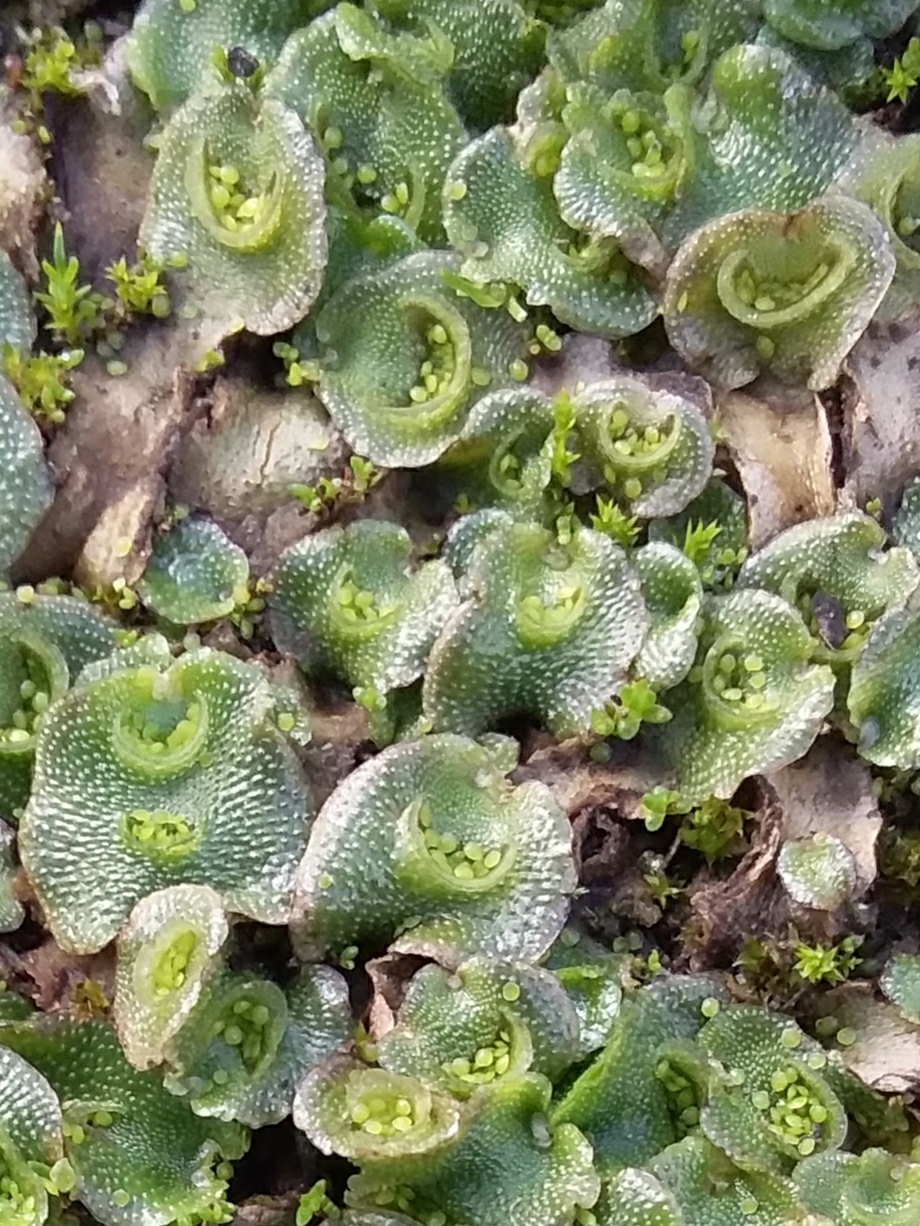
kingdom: Plantae
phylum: Marchantiophyta
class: Marchantiopsida
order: Lunulariales
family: Lunulariaceae
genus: Lunularia
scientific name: Lunularia cruciata
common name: Crescent-cup liverwort
